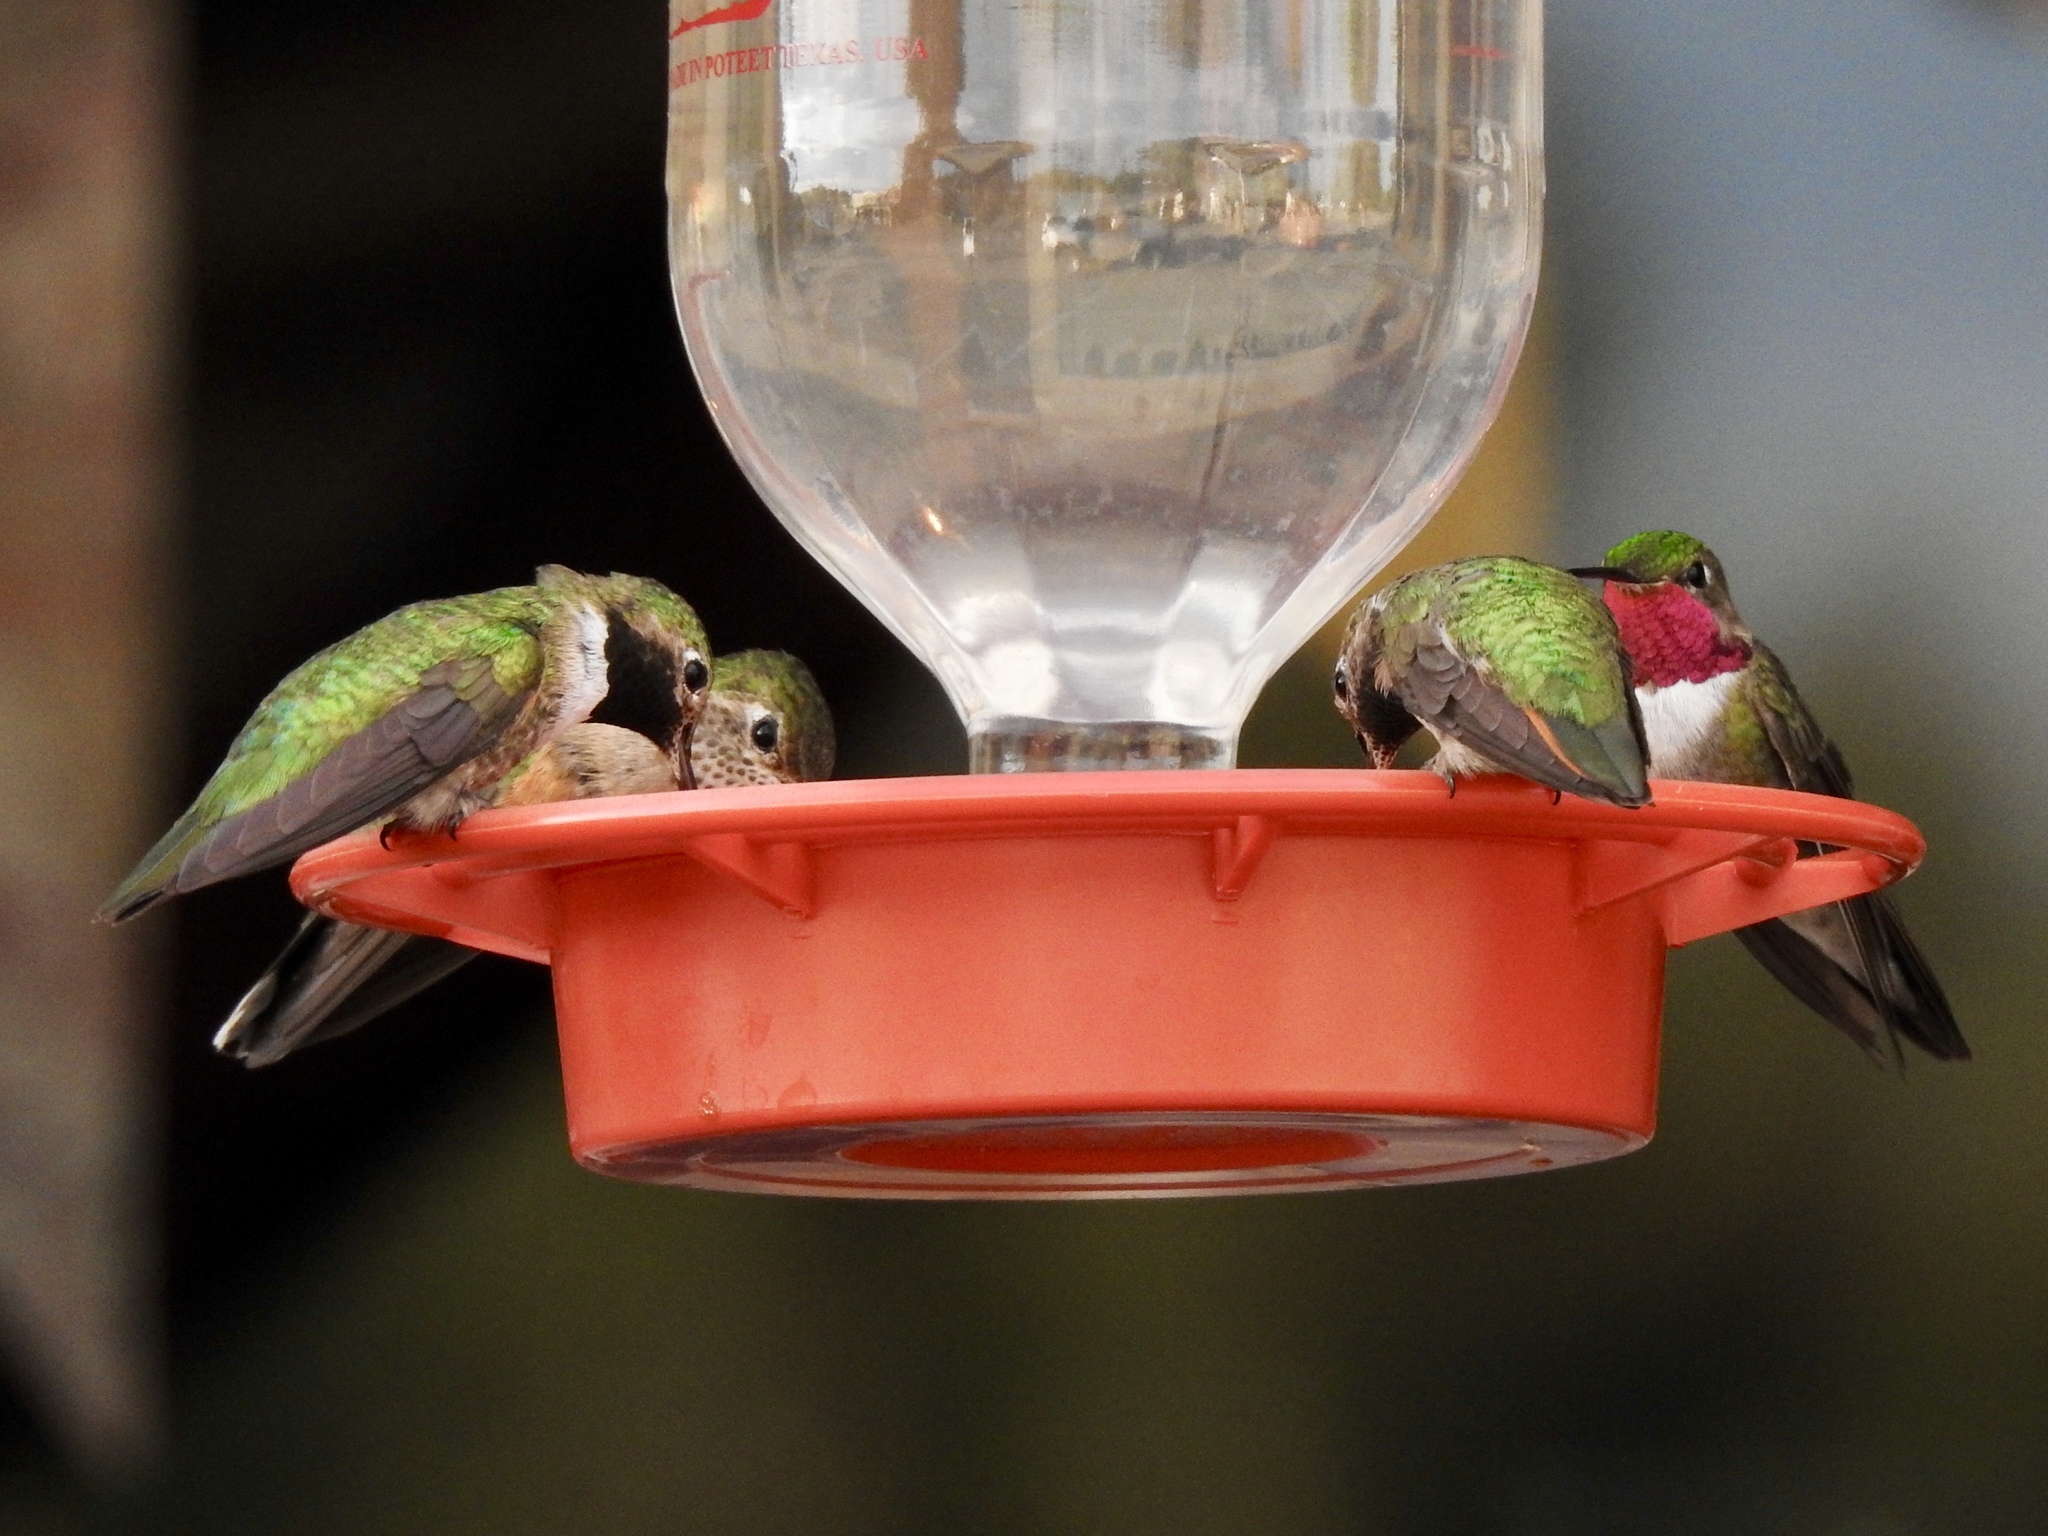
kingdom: Animalia
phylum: Chordata
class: Aves
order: Apodiformes
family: Trochilidae
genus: Selasphorus
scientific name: Selasphorus platycercus
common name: Broad-tailed hummingbird
